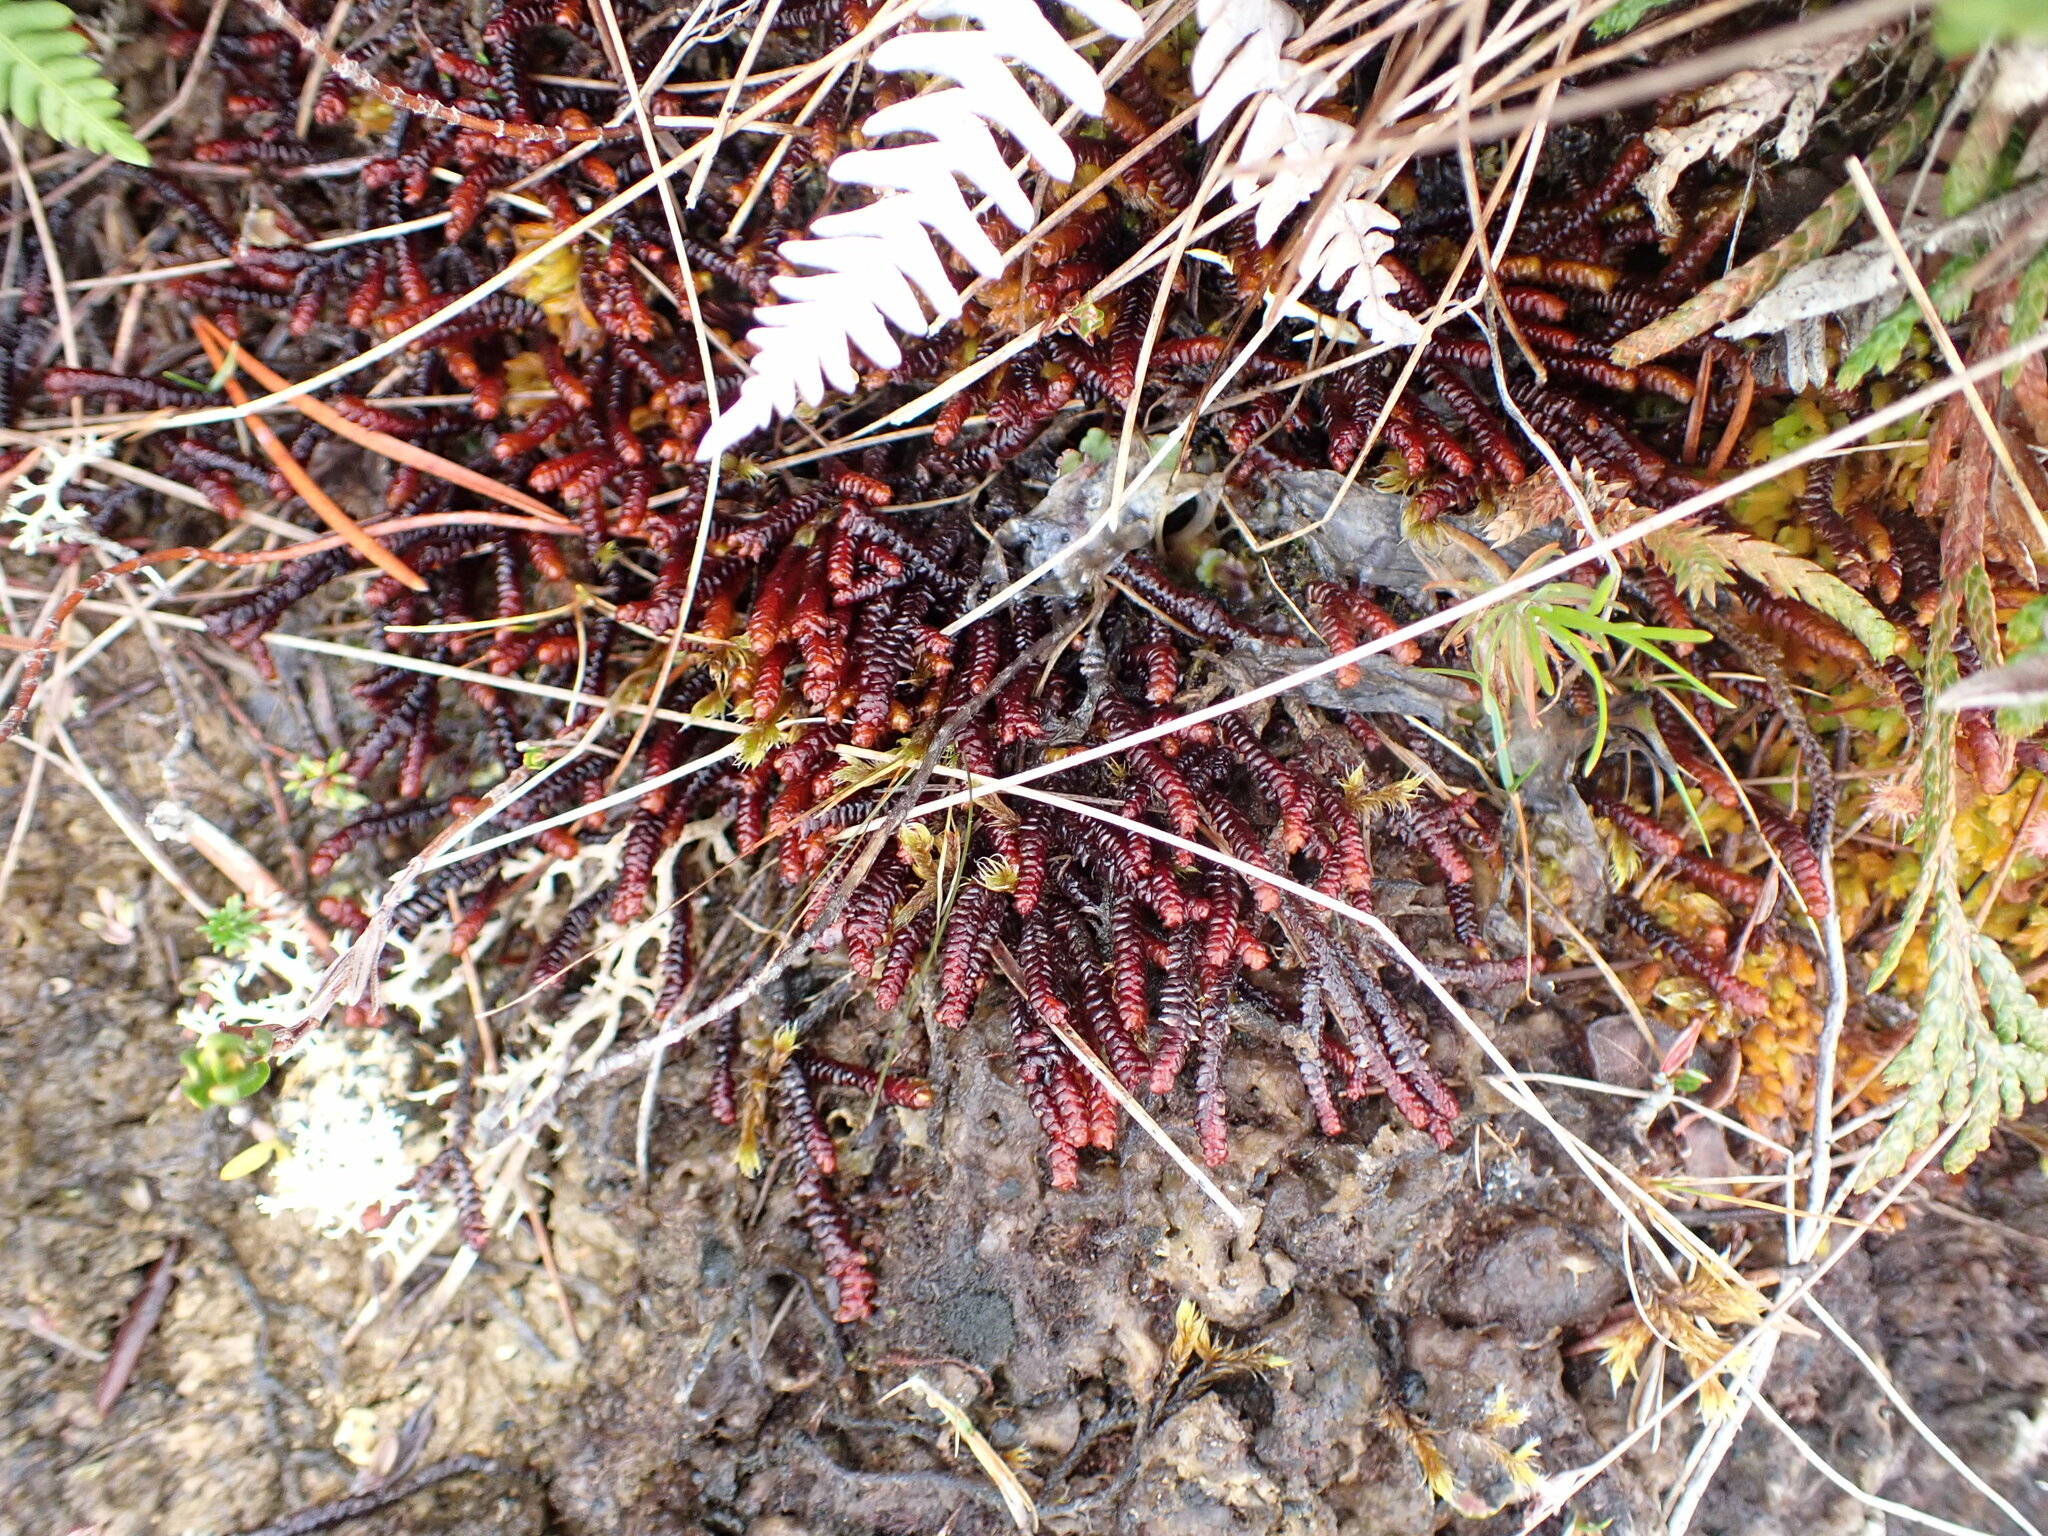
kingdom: Plantae
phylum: Marchantiophyta
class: Jungermanniopsida
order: Pleuroziales
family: Pleuroziaceae
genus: Pleurozia
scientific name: Pleurozia purpurea
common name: Purple spoonwort
